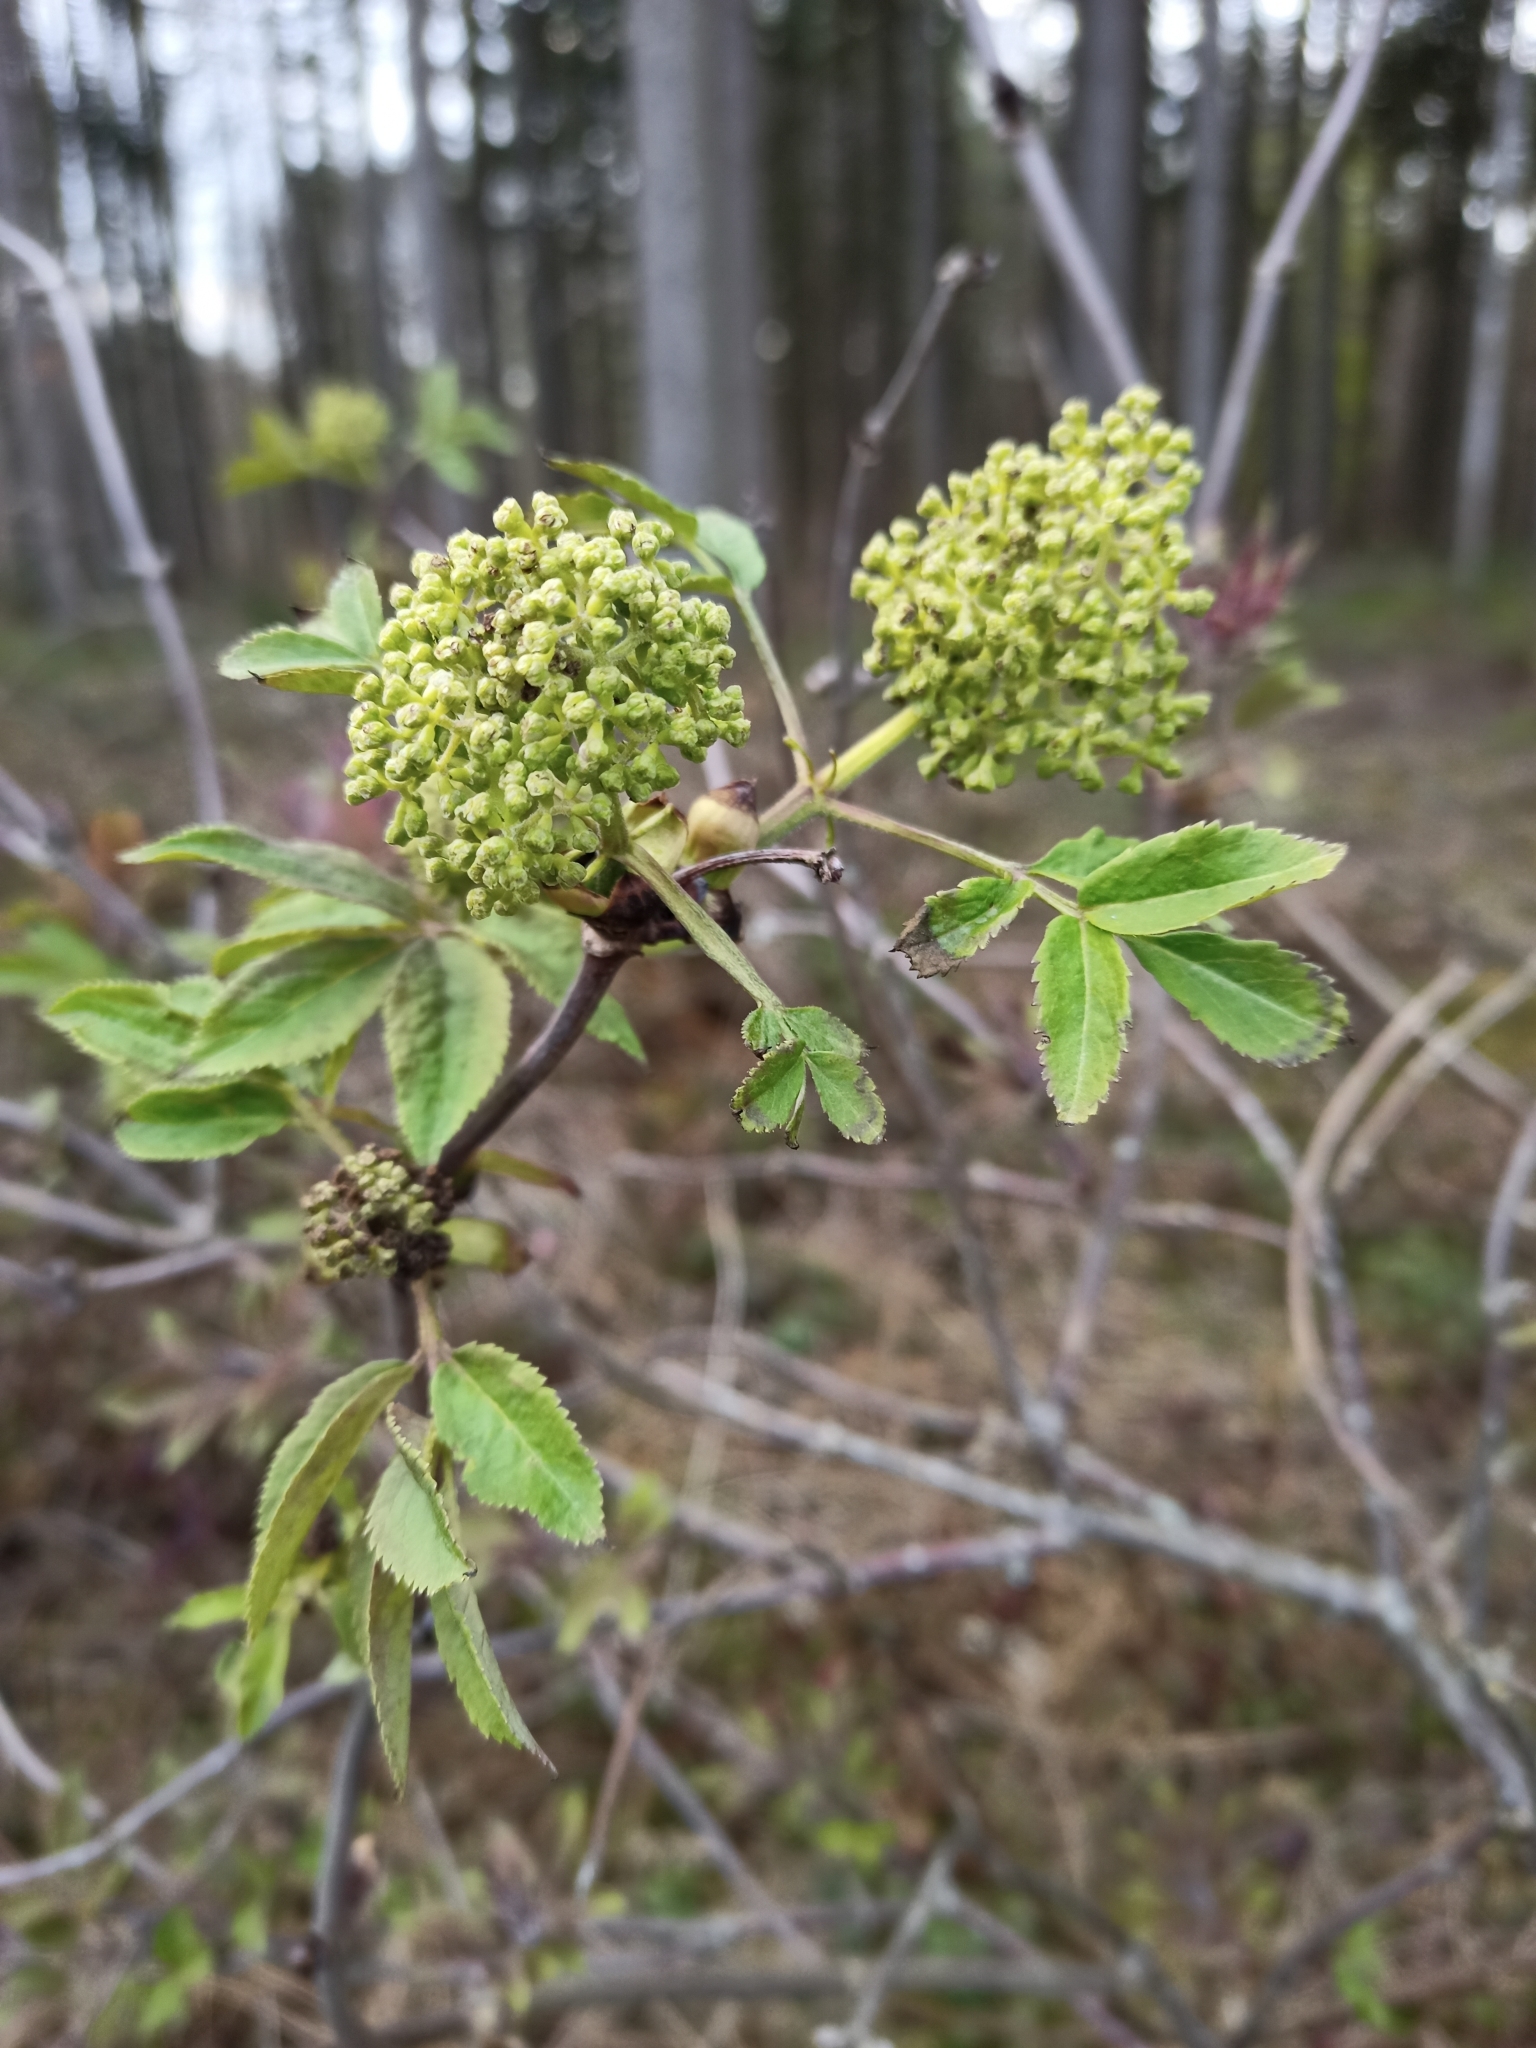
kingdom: Plantae
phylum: Tracheophyta
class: Magnoliopsida
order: Dipsacales
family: Viburnaceae
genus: Sambucus
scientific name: Sambucus racemosa
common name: Red-berried elder
